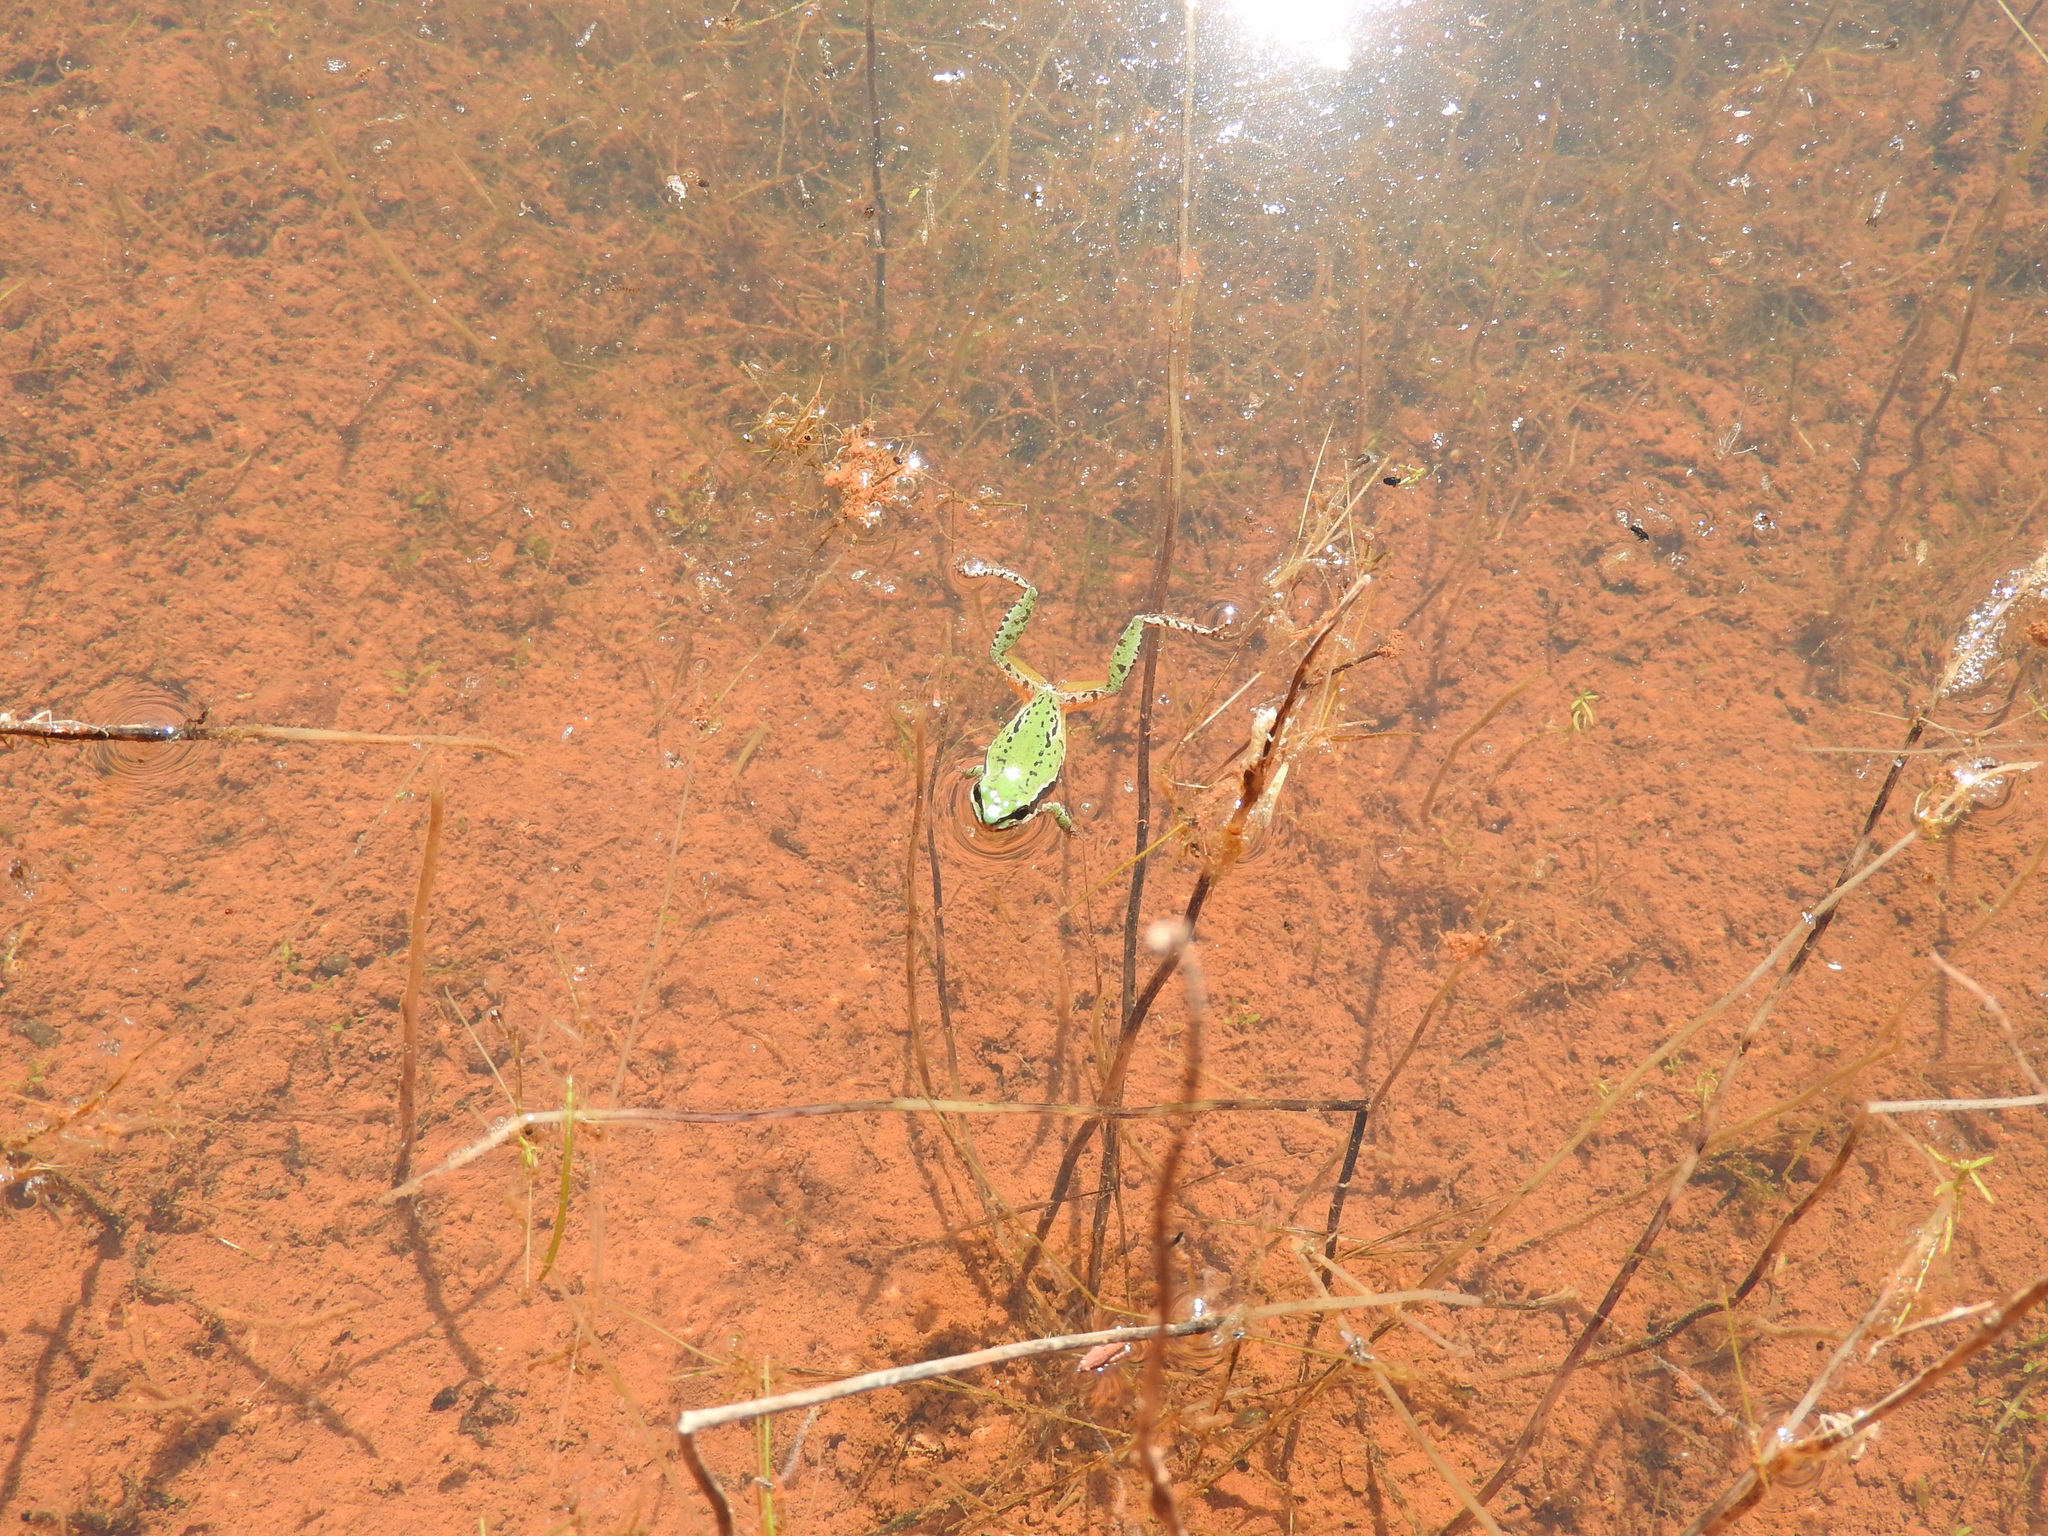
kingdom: Animalia
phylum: Chordata
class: Amphibia
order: Anura
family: Hylidae
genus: Dryophytes
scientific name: Dryophytes eximius
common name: Mountain treefrog
